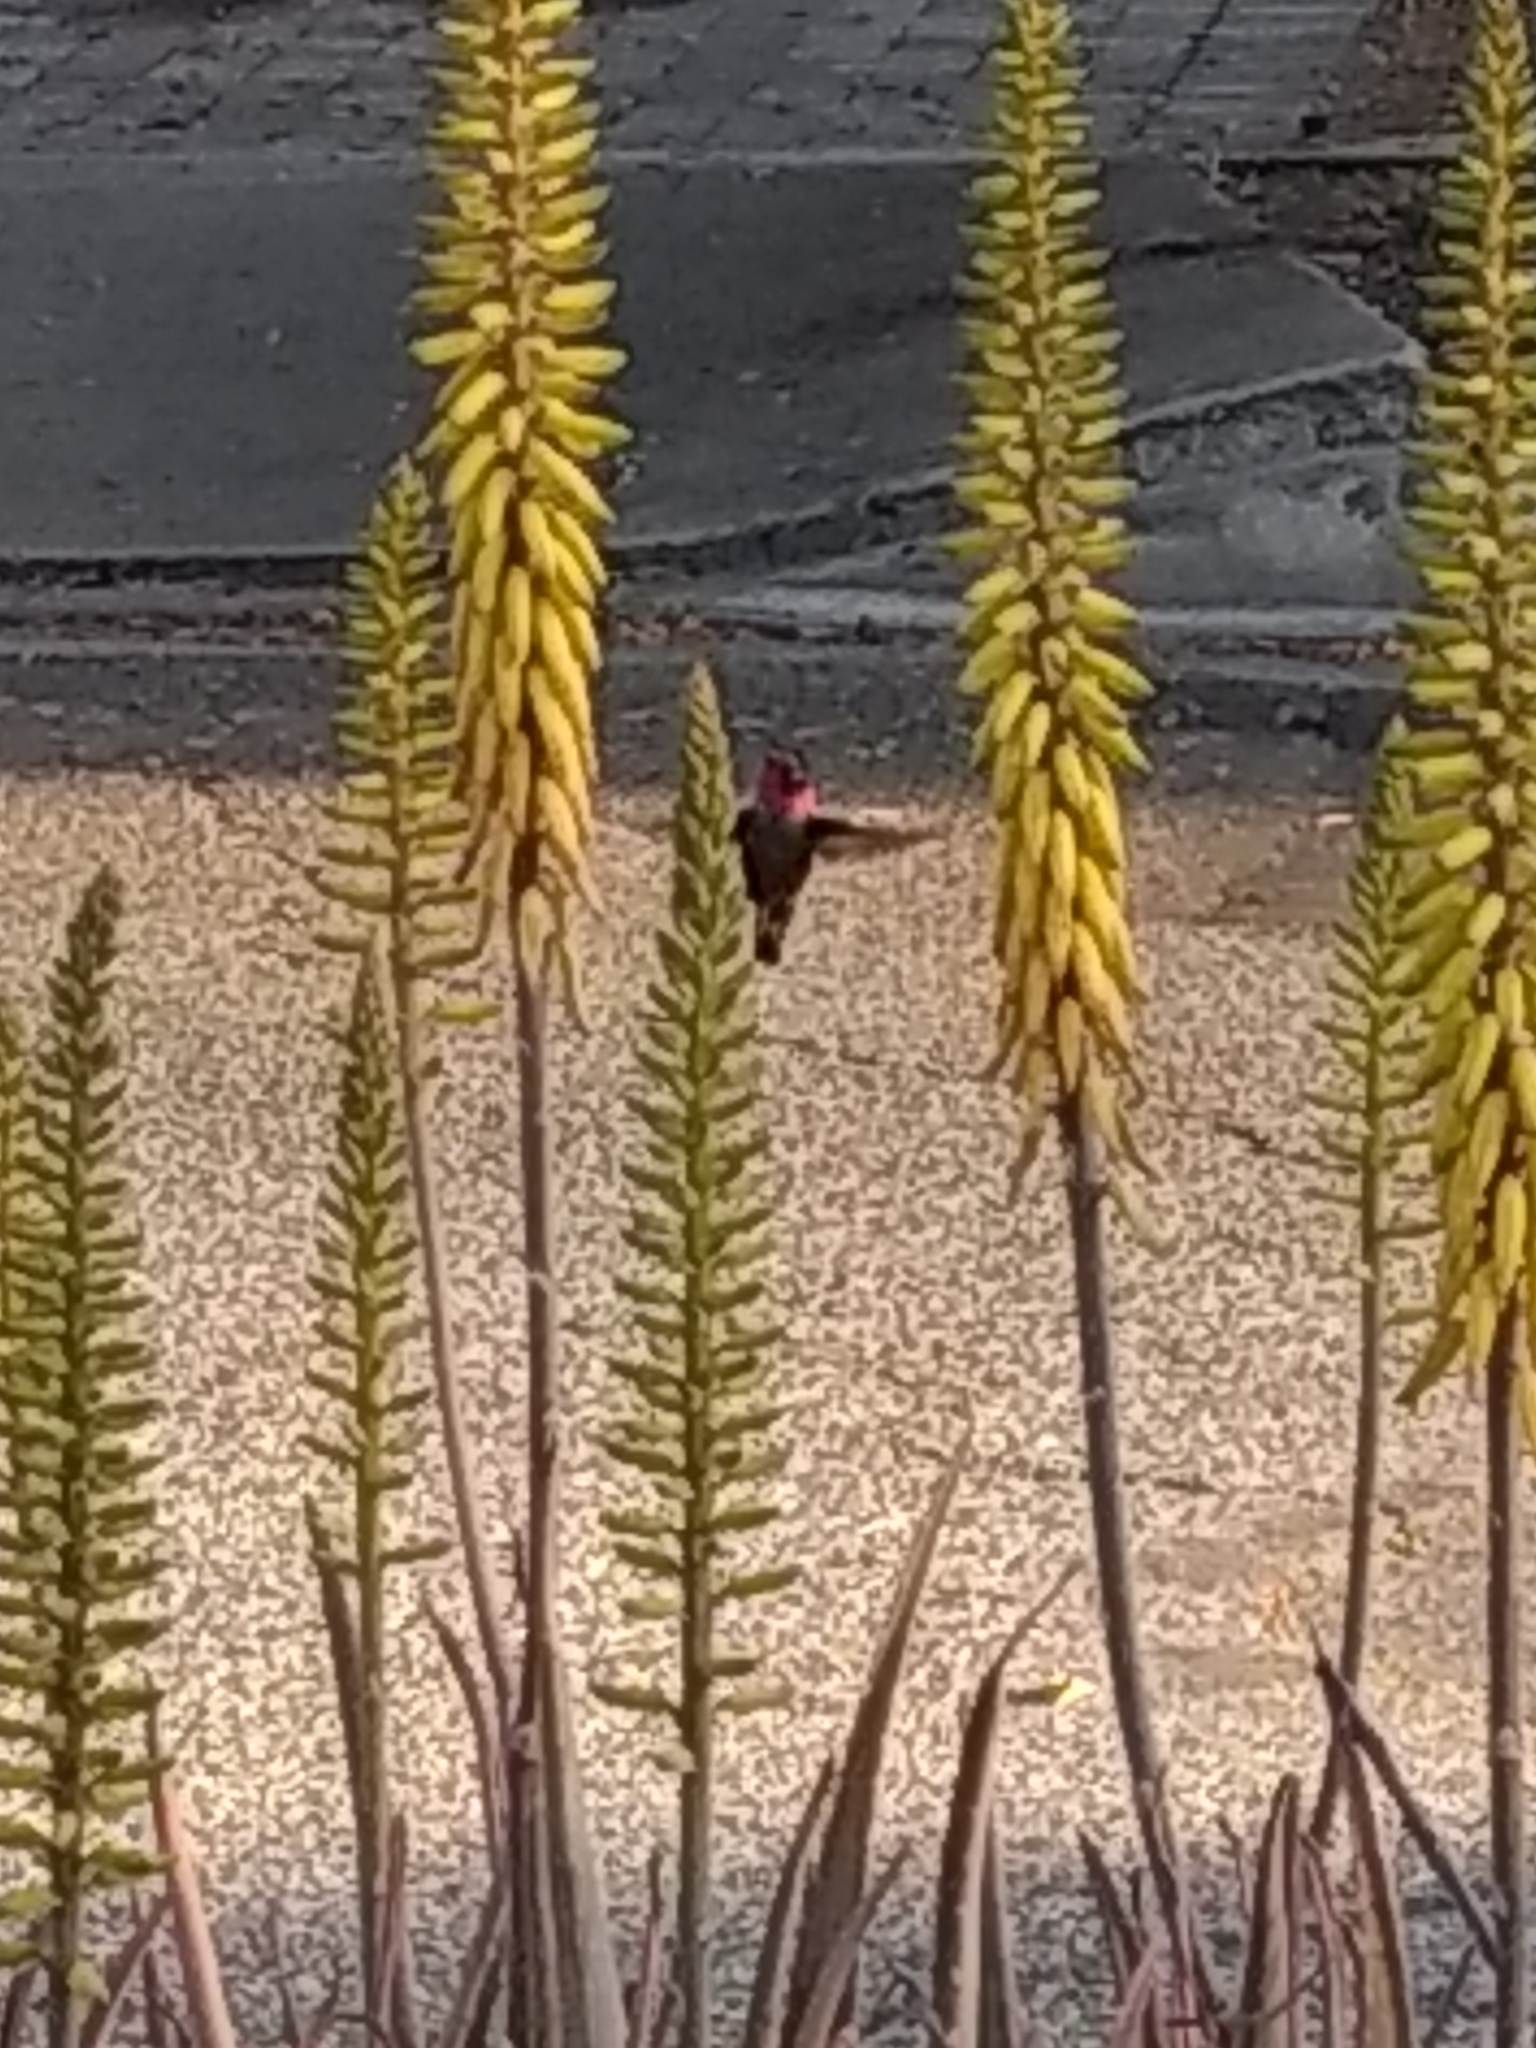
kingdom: Animalia
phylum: Chordata
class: Aves
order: Apodiformes
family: Trochilidae
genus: Calypte
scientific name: Calypte anna
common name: Anna's hummingbird
